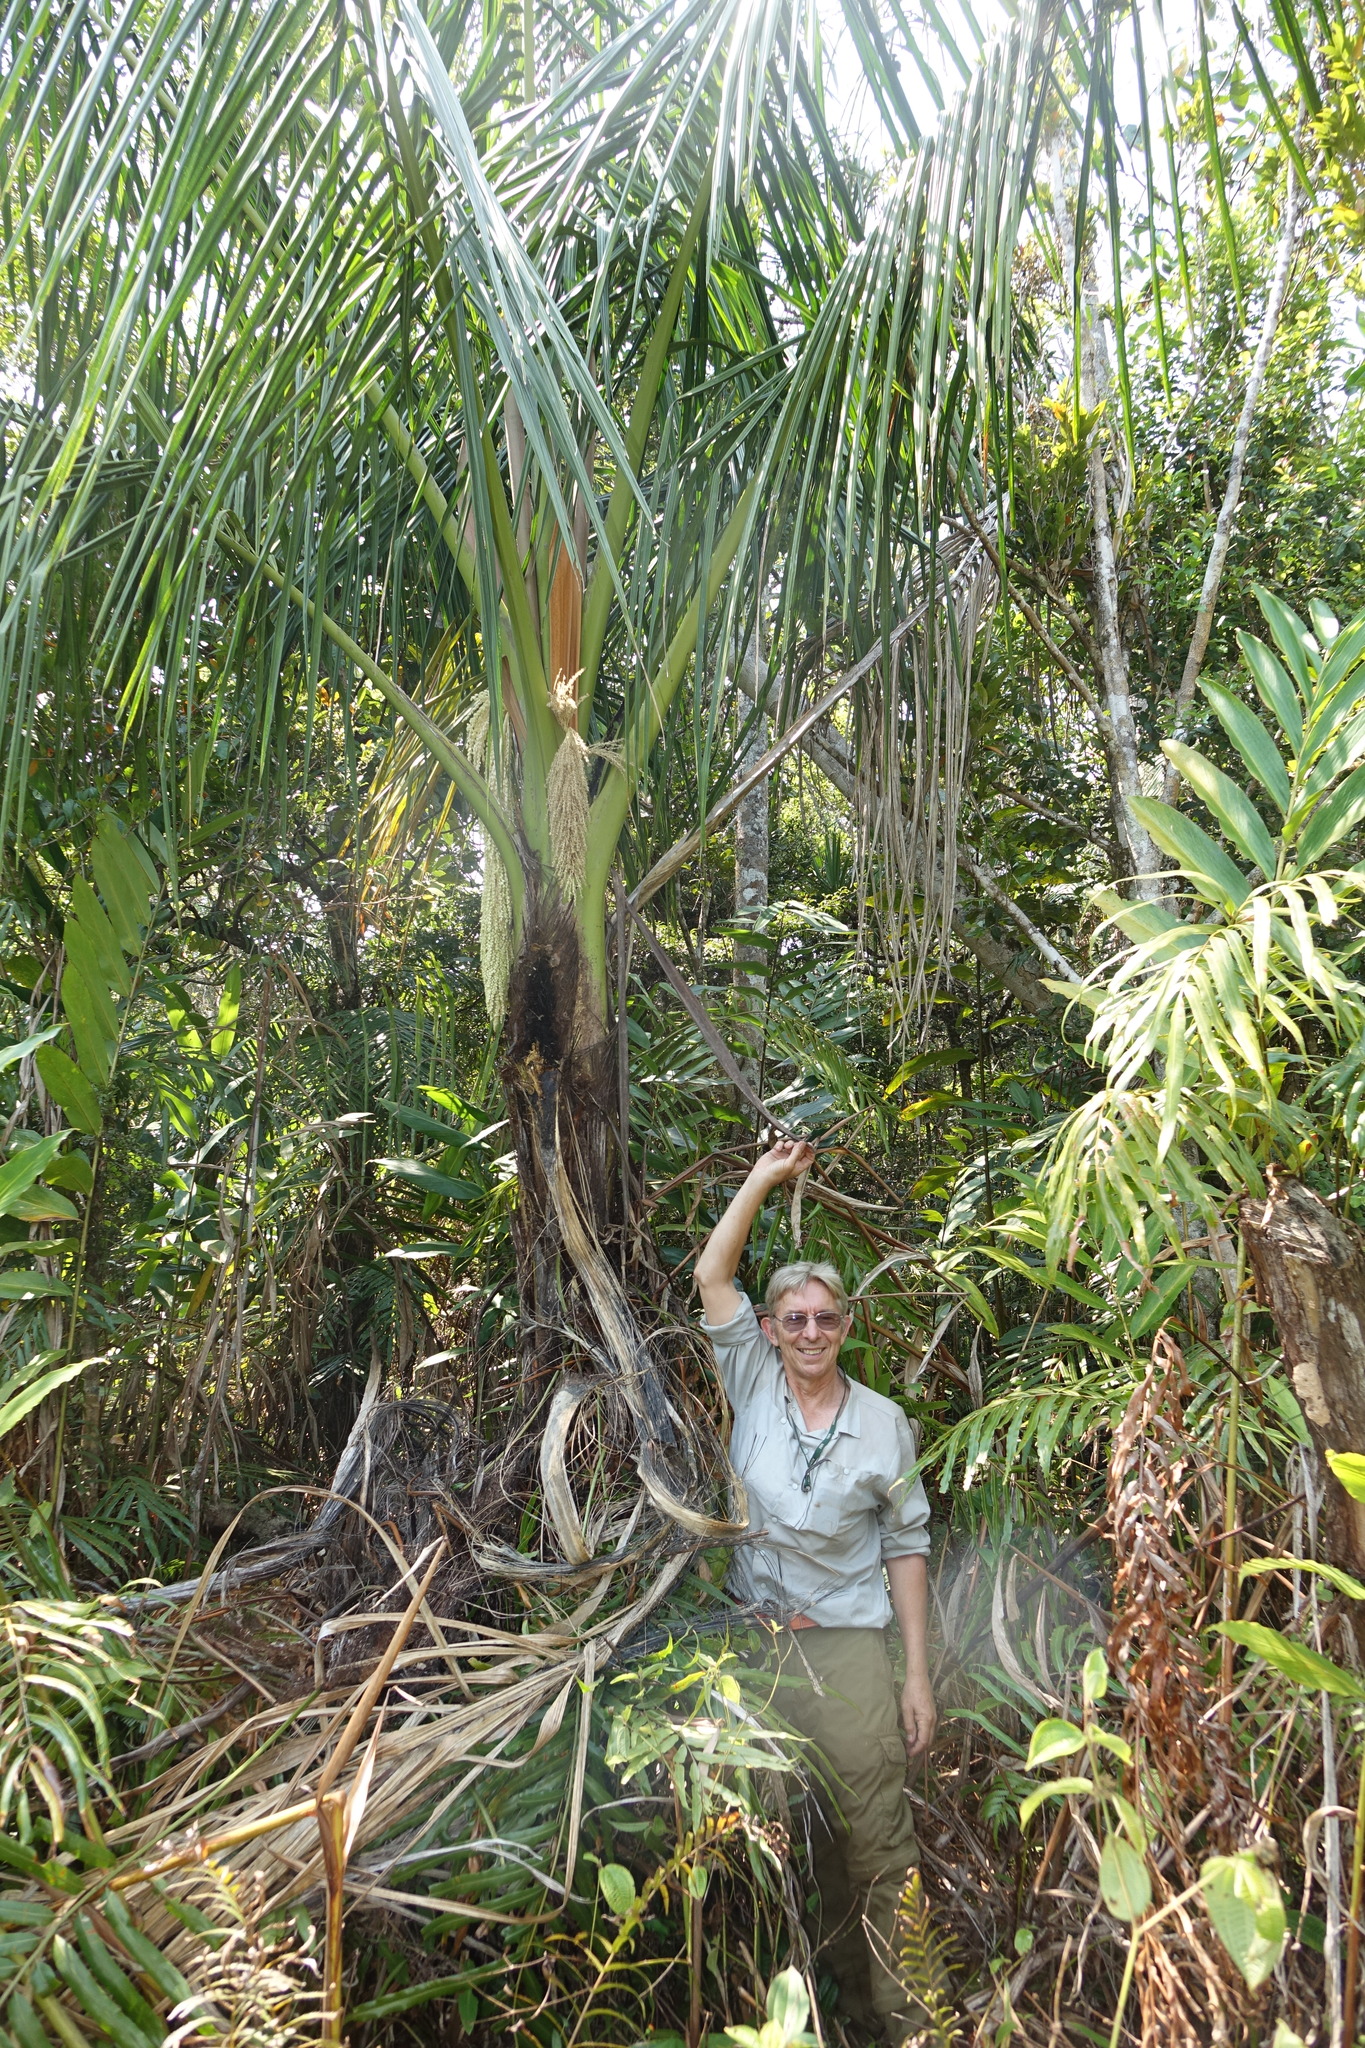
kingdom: Plantae
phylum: Tracheophyta
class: Liliopsida
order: Arecales
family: Arecaceae
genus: Ravenea
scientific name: Ravenea beentjei
